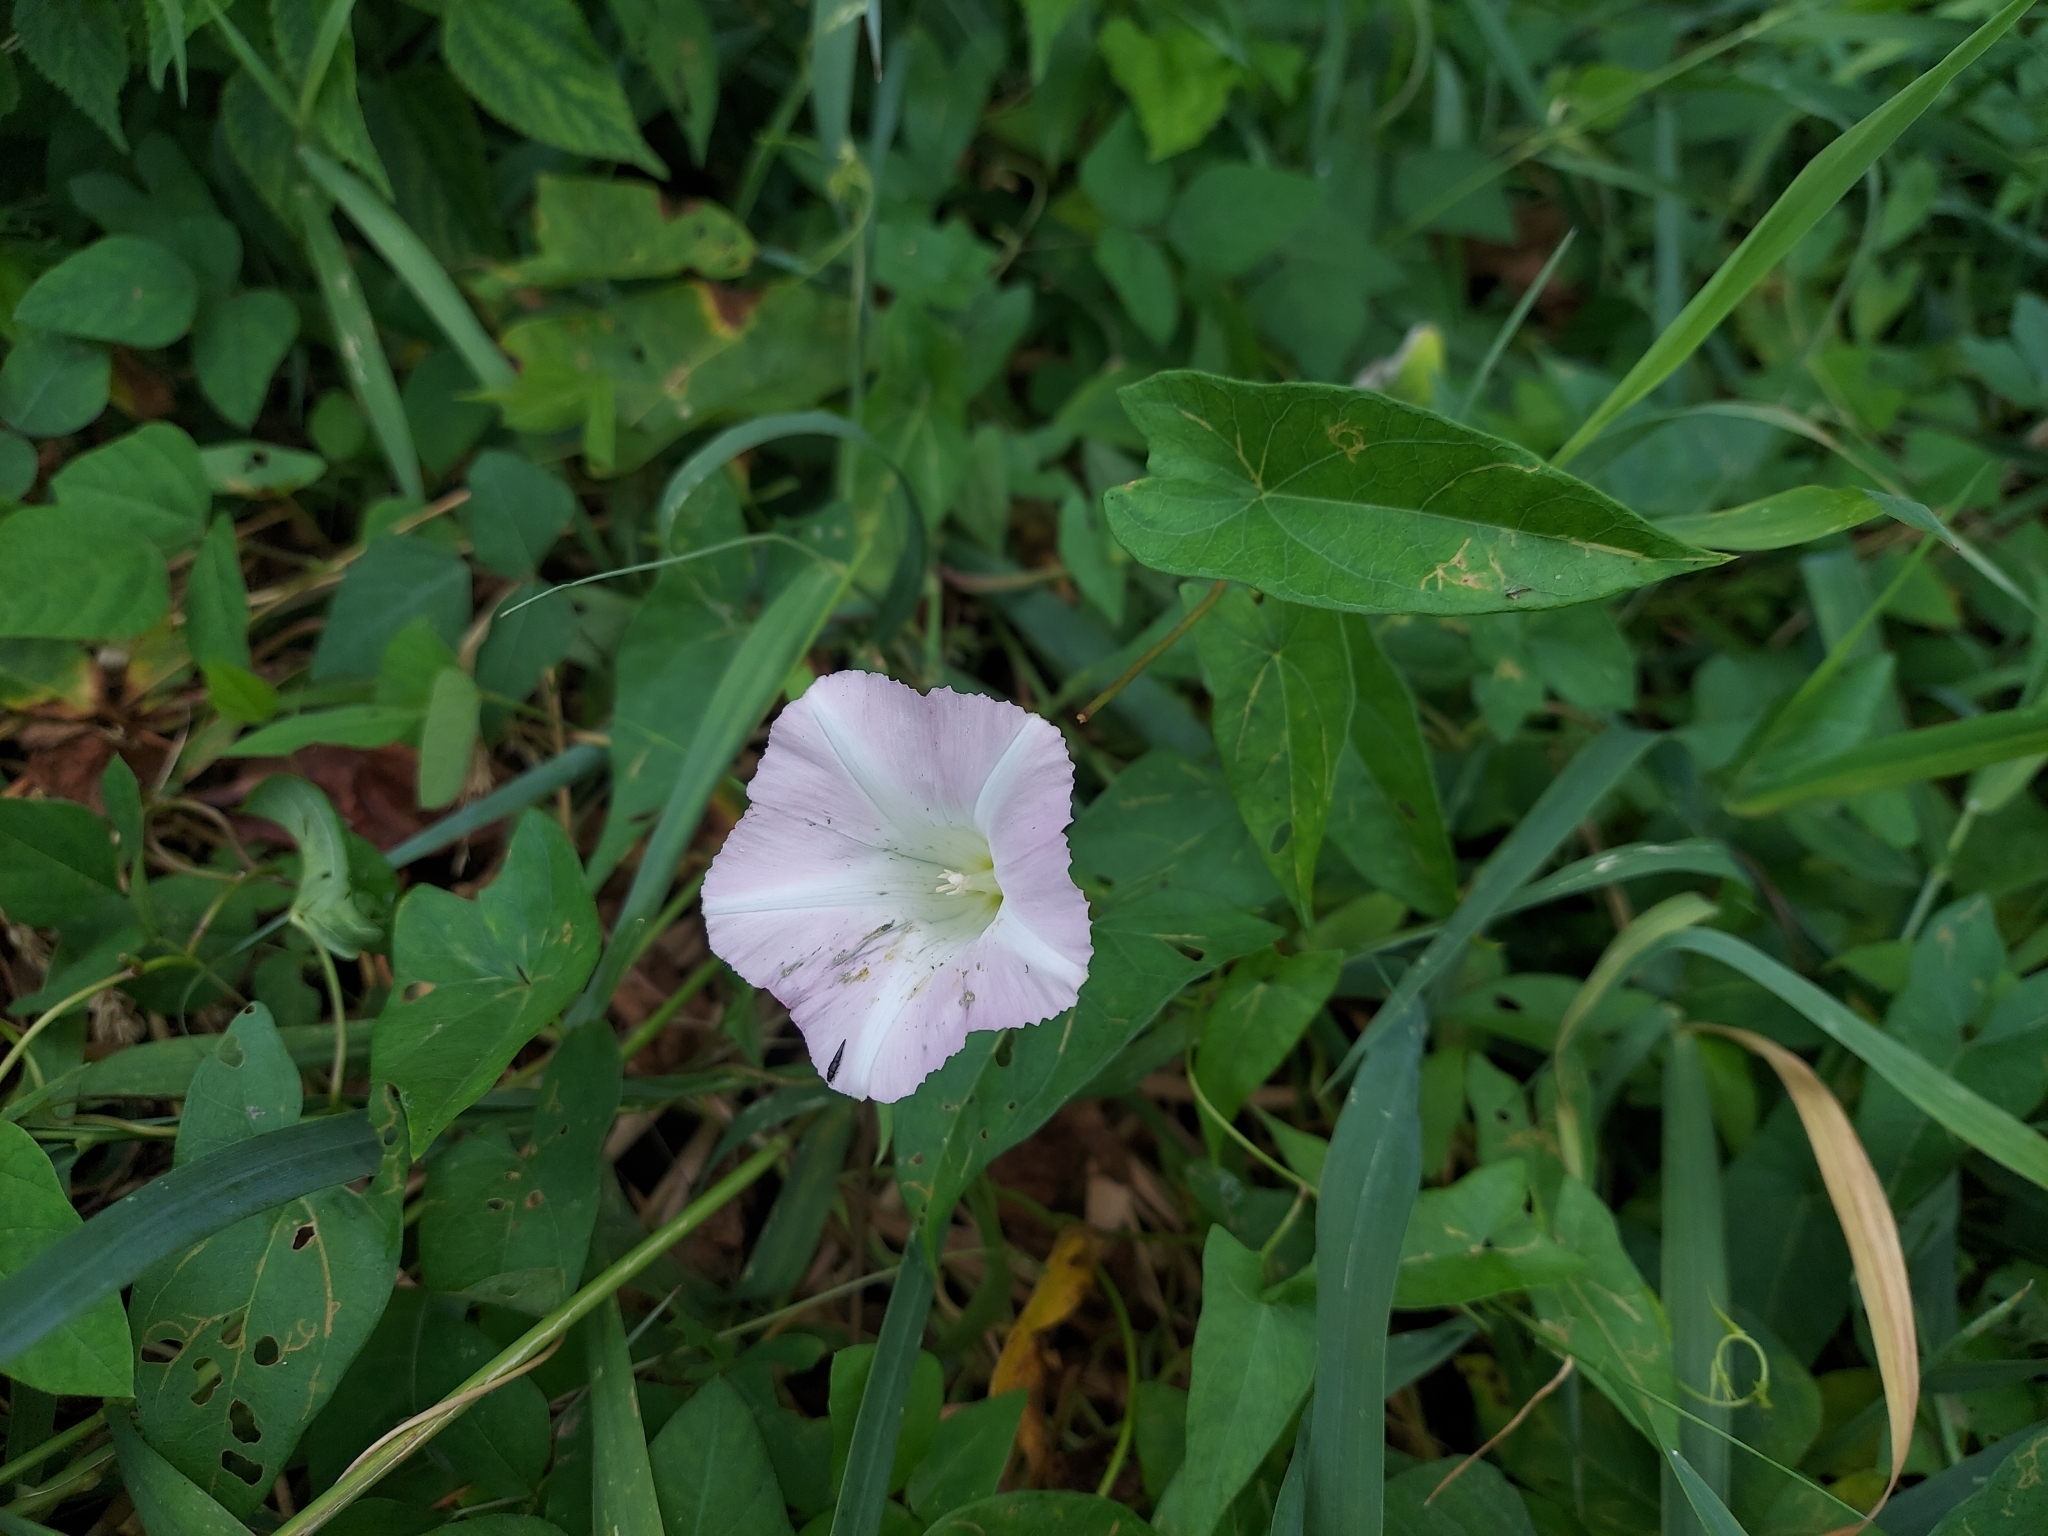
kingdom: Plantae
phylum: Tracheophyta
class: Magnoliopsida
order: Solanales
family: Convolvulaceae
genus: Calystegia
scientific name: Calystegia sepium
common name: Hedge bindweed
